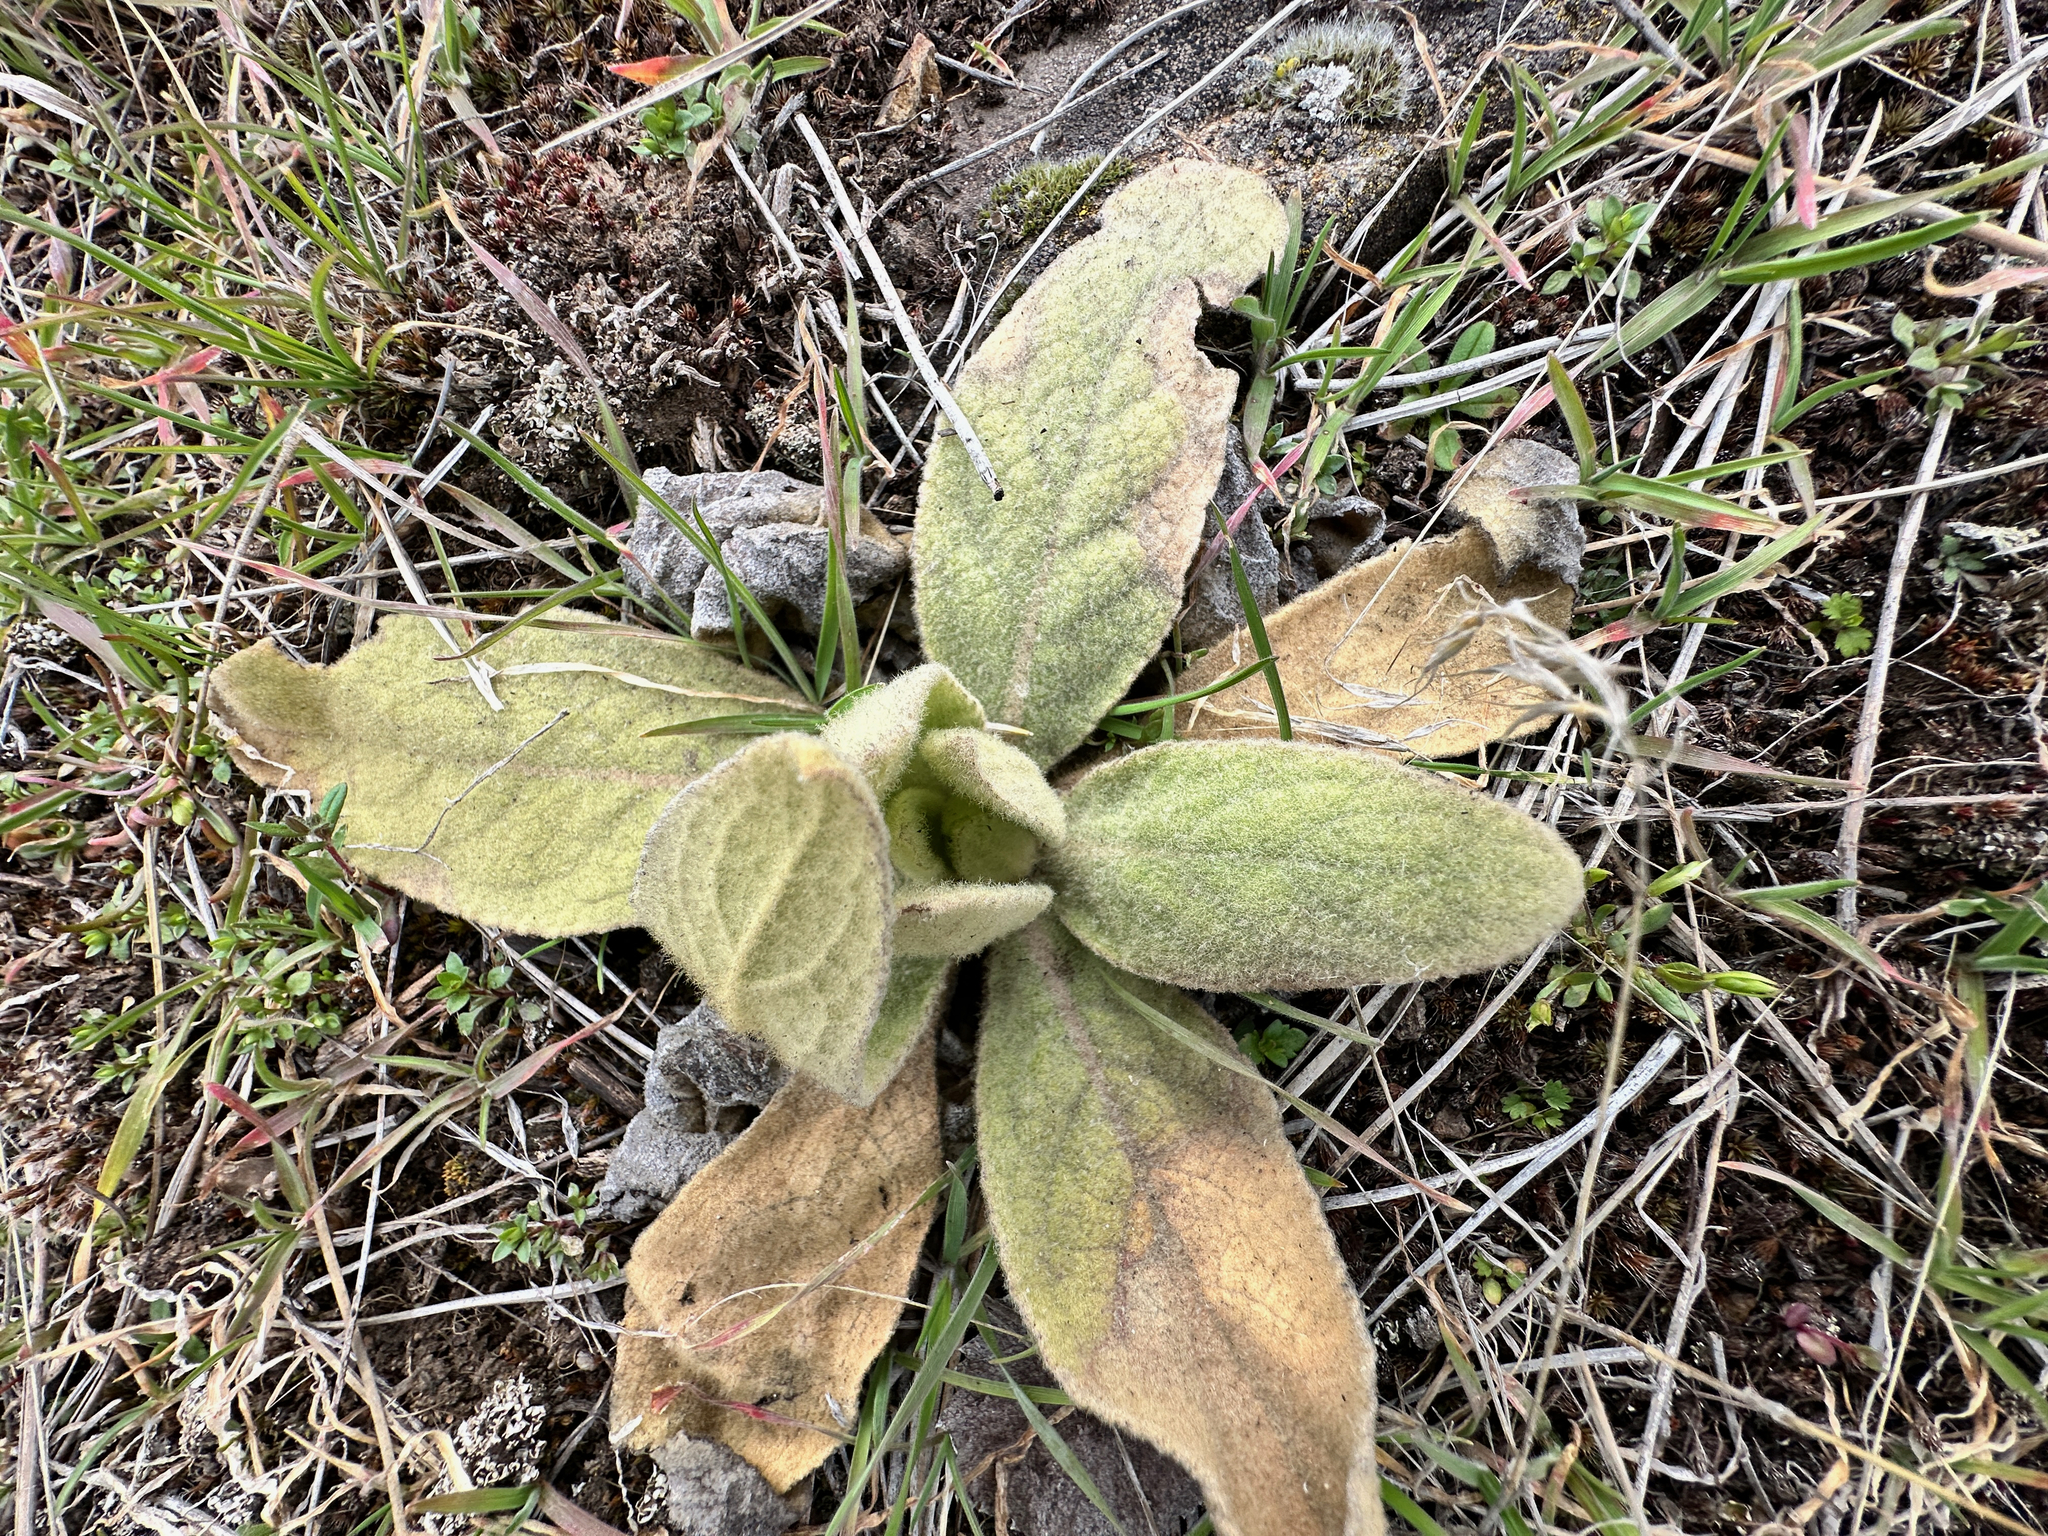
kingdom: Plantae
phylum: Tracheophyta
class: Magnoliopsida
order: Lamiales
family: Scrophulariaceae
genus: Verbascum
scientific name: Verbascum thapsus
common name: Common mullein
